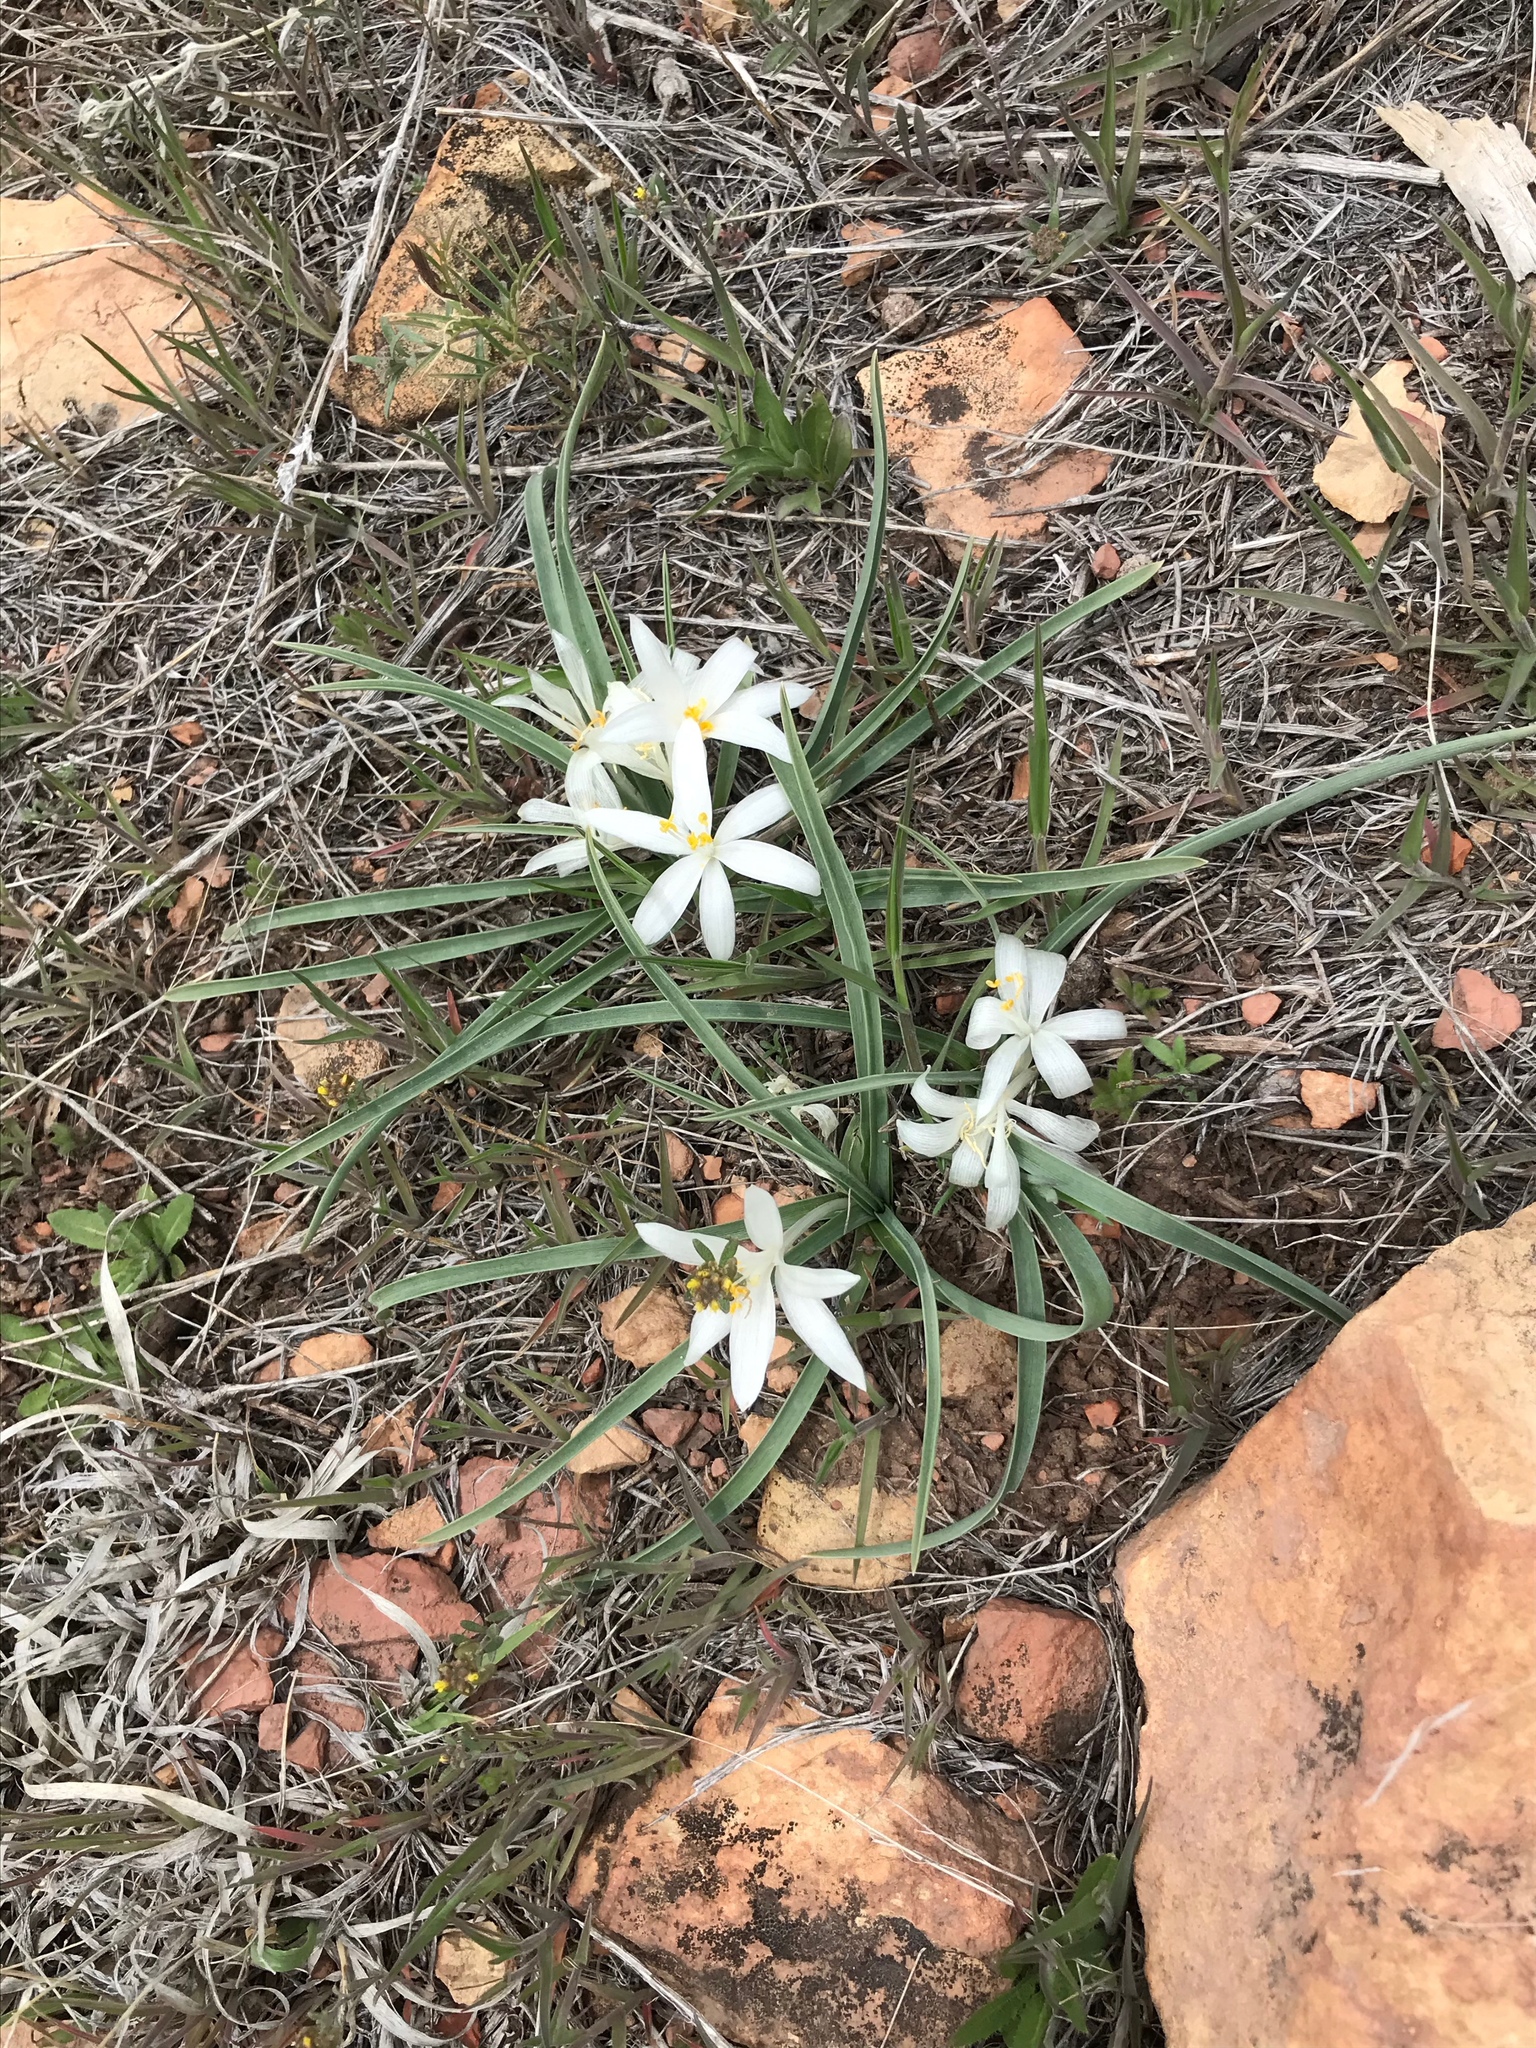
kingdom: Plantae
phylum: Tracheophyta
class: Liliopsida
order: Asparagales
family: Asparagaceae
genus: Leucocrinum
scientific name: Leucocrinum montanum
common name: Mountain-lily
